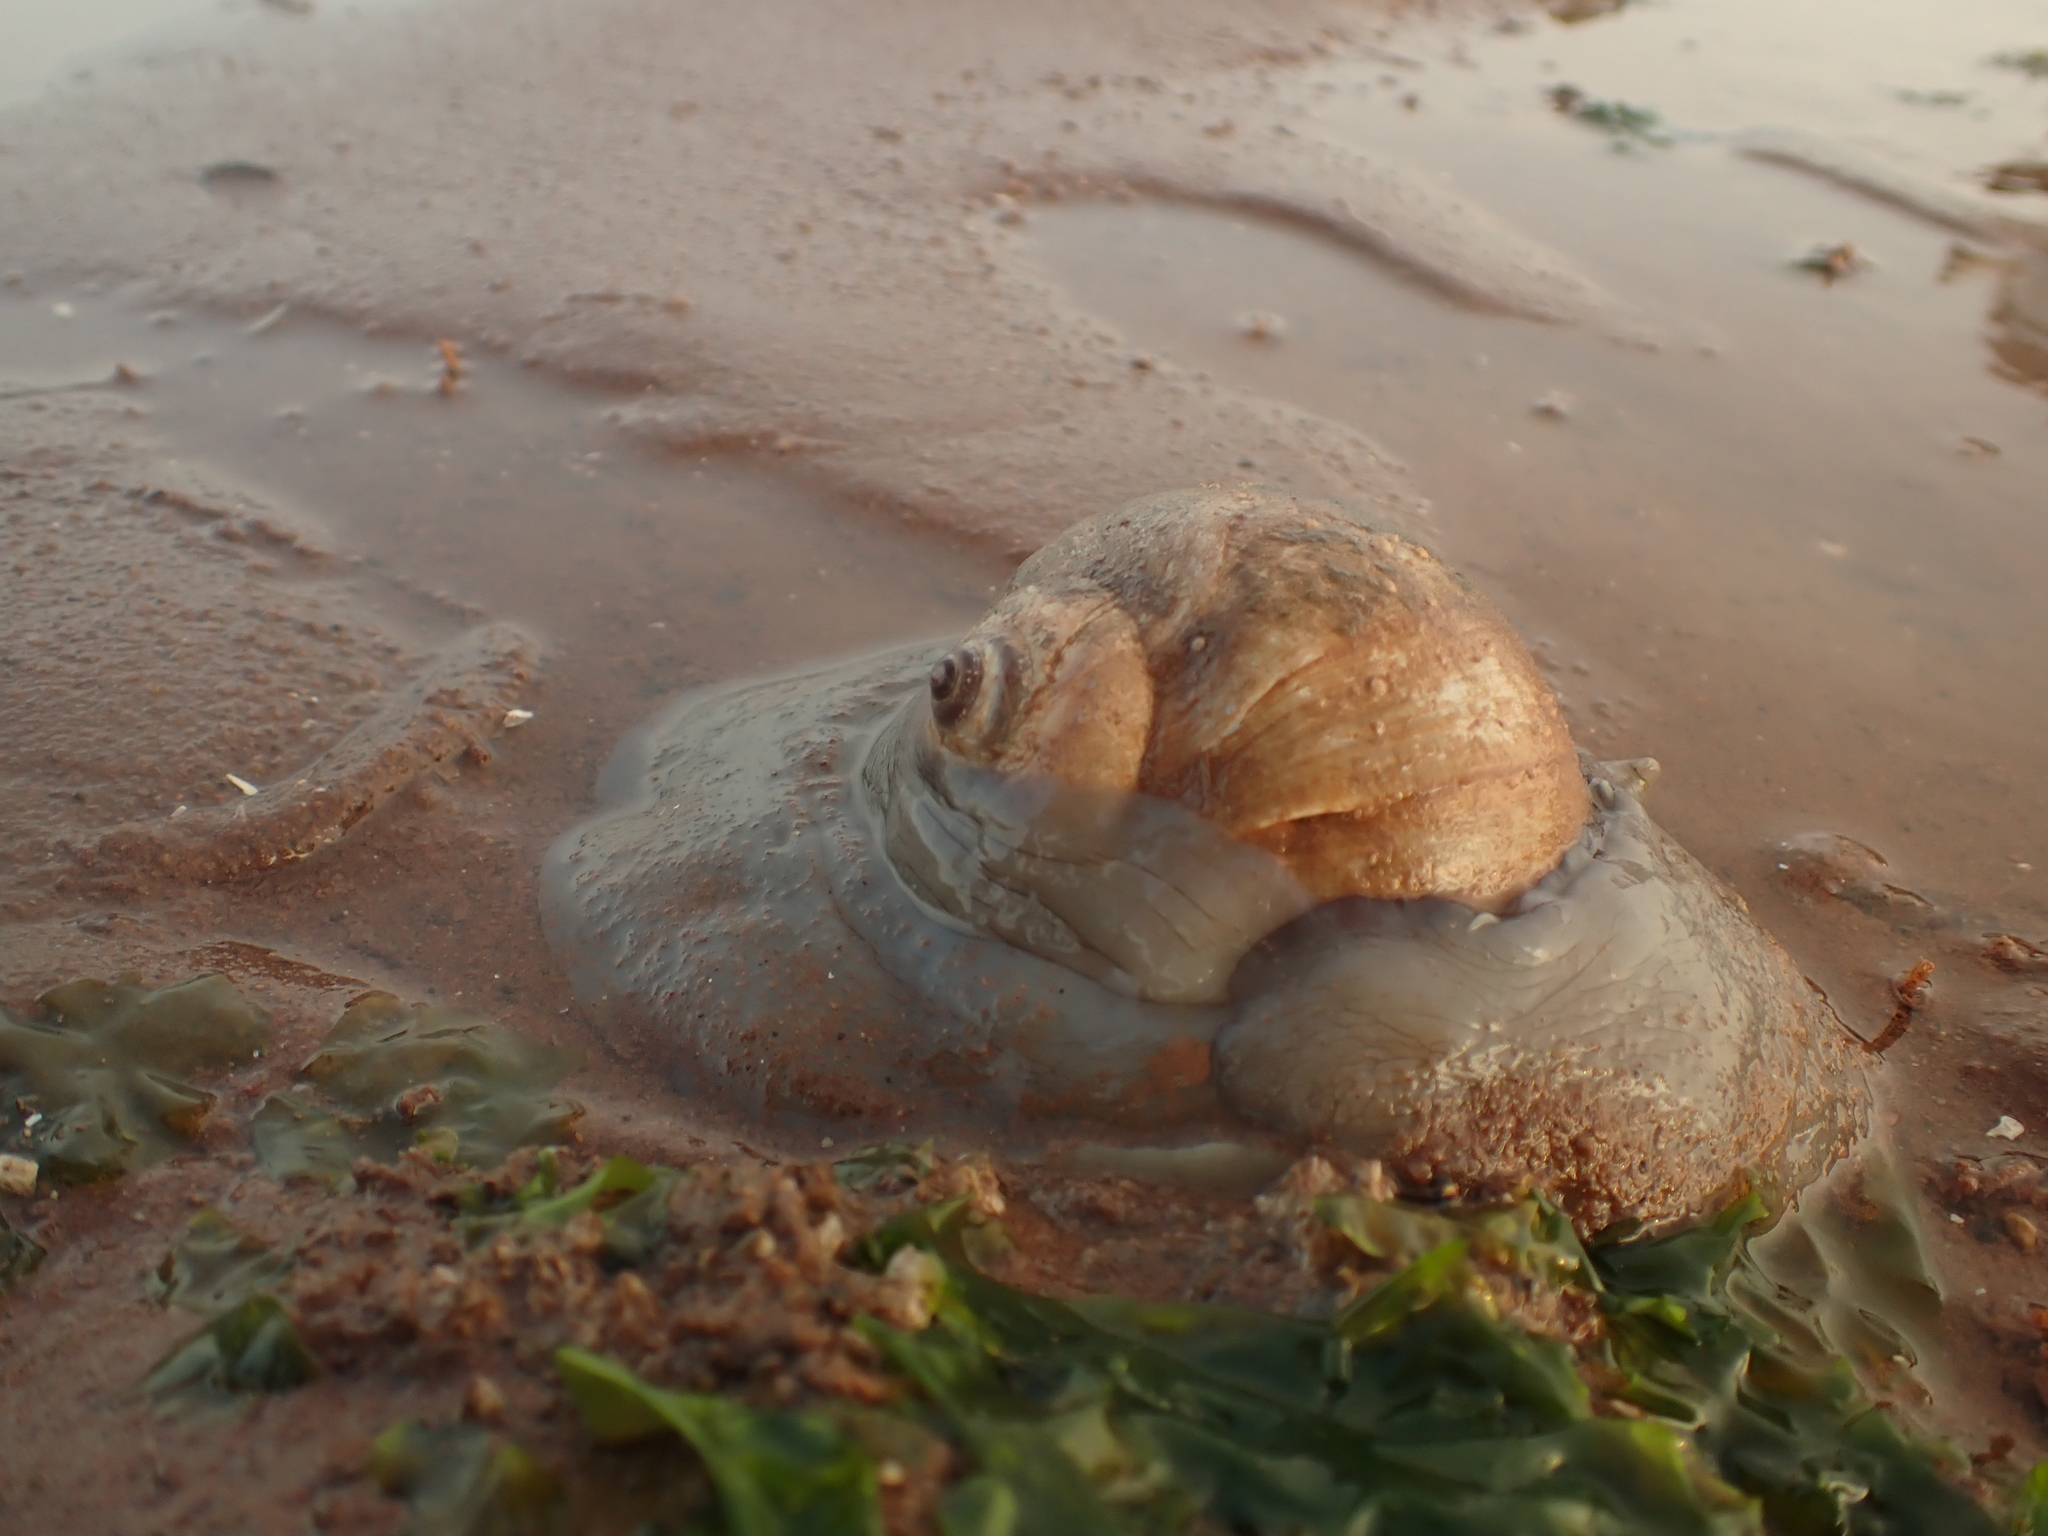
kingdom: Animalia
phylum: Mollusca
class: Gastropoda
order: Littorinimorpha
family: Naticidae
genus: Euspira
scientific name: Euspira heros
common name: Common northern moonsnail
